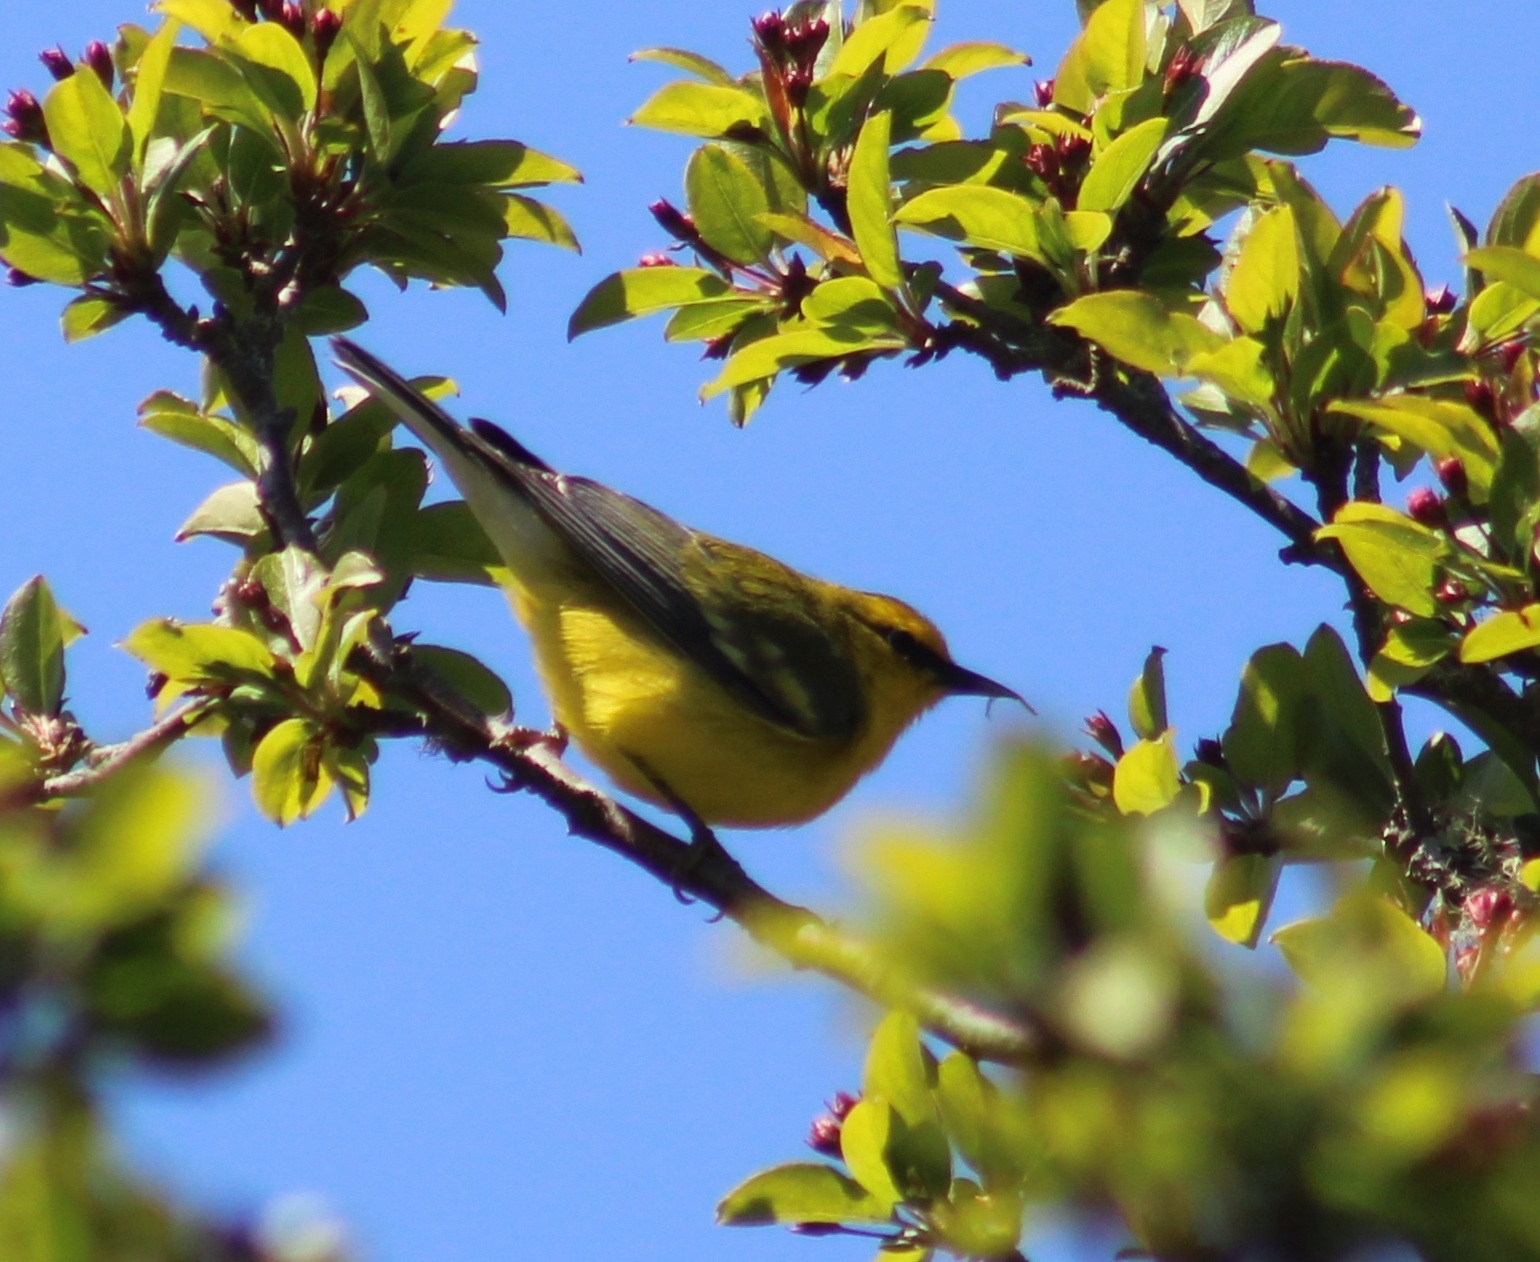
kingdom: Animalia
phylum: Chordata
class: Aves
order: Passeriformes
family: Parulidae
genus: Vermivora
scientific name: Vermivora cyanoptera
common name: Blue-winged warbler
